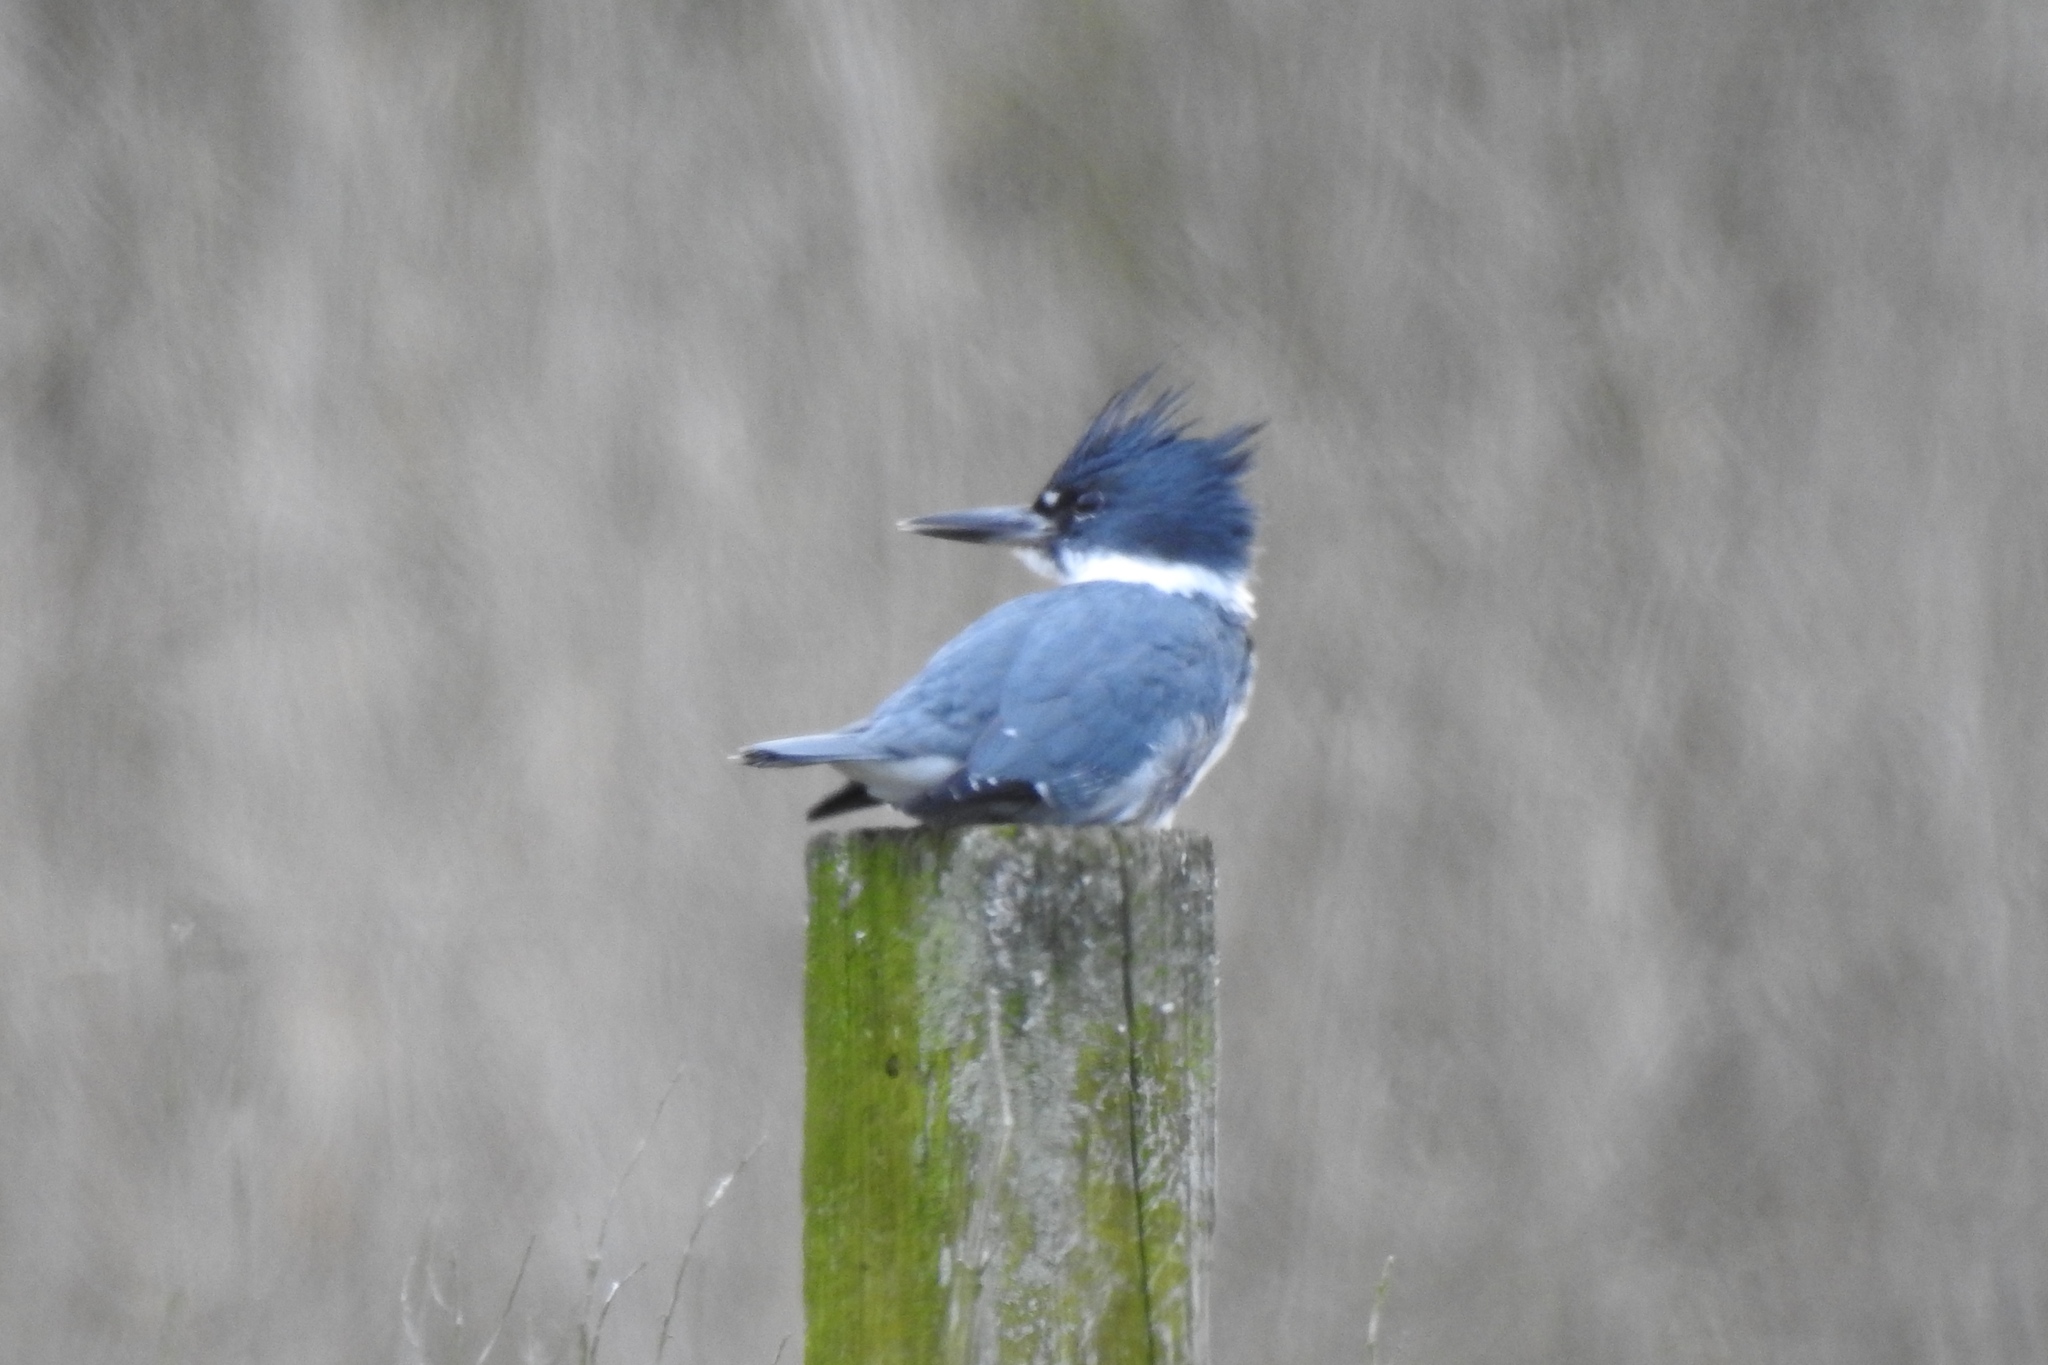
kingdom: Animalia
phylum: Chordata
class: Aves
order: Coraciiformes
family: Alcedinidae
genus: Megaceryle
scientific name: Megaceryle alcyon
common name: Belted kingfisher
